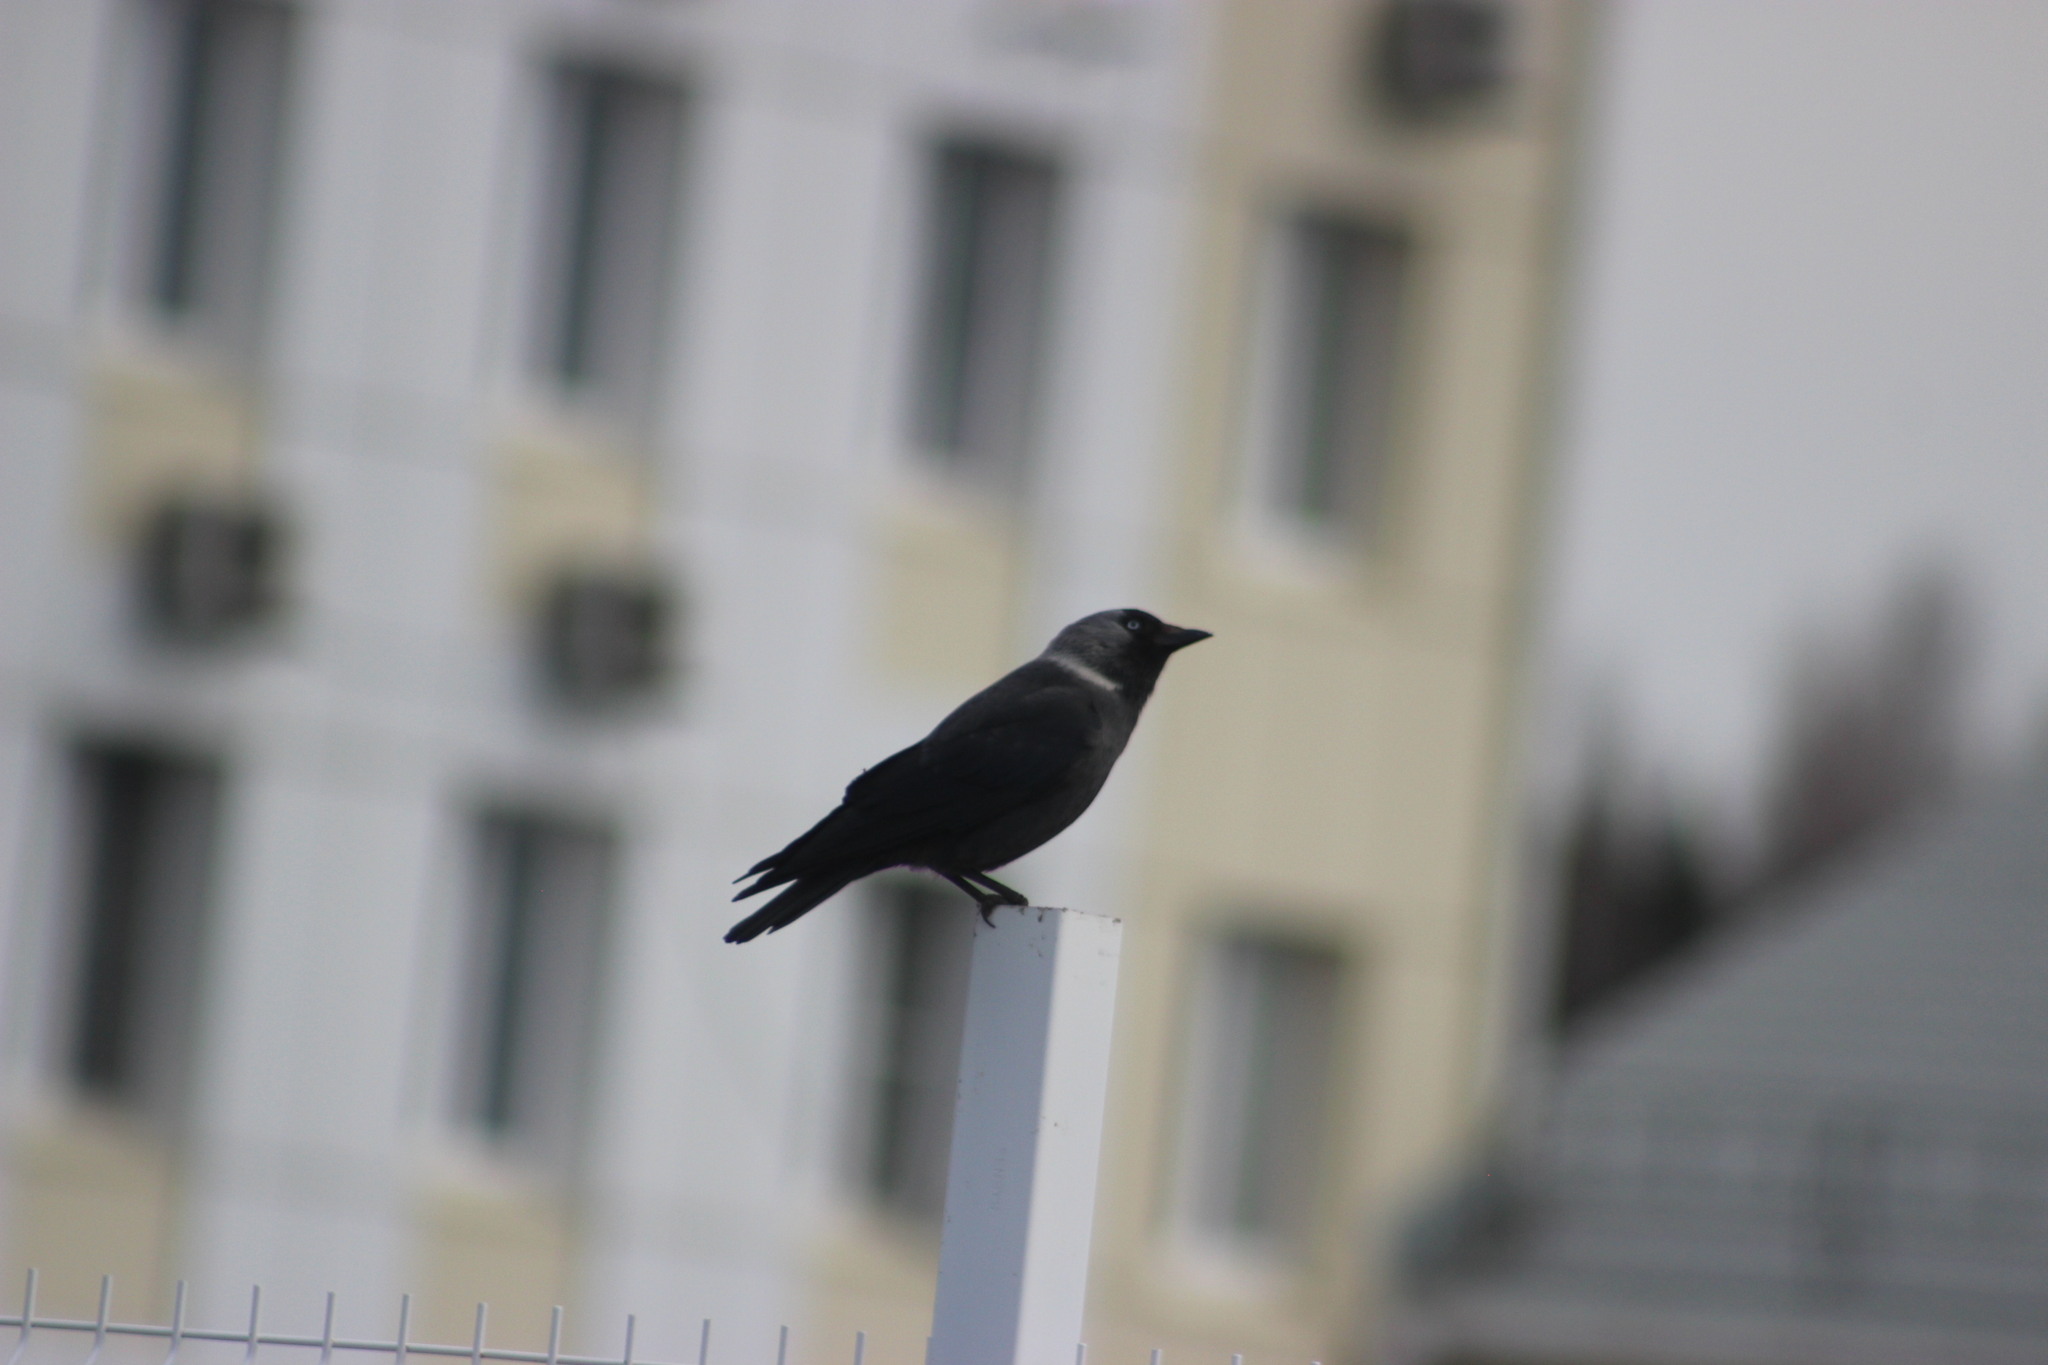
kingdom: Animalia
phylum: Chordata
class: Aves
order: Passeriformes
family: Corvidae
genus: Coloeus
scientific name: Coloeus monedula
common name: Western jackdaw
